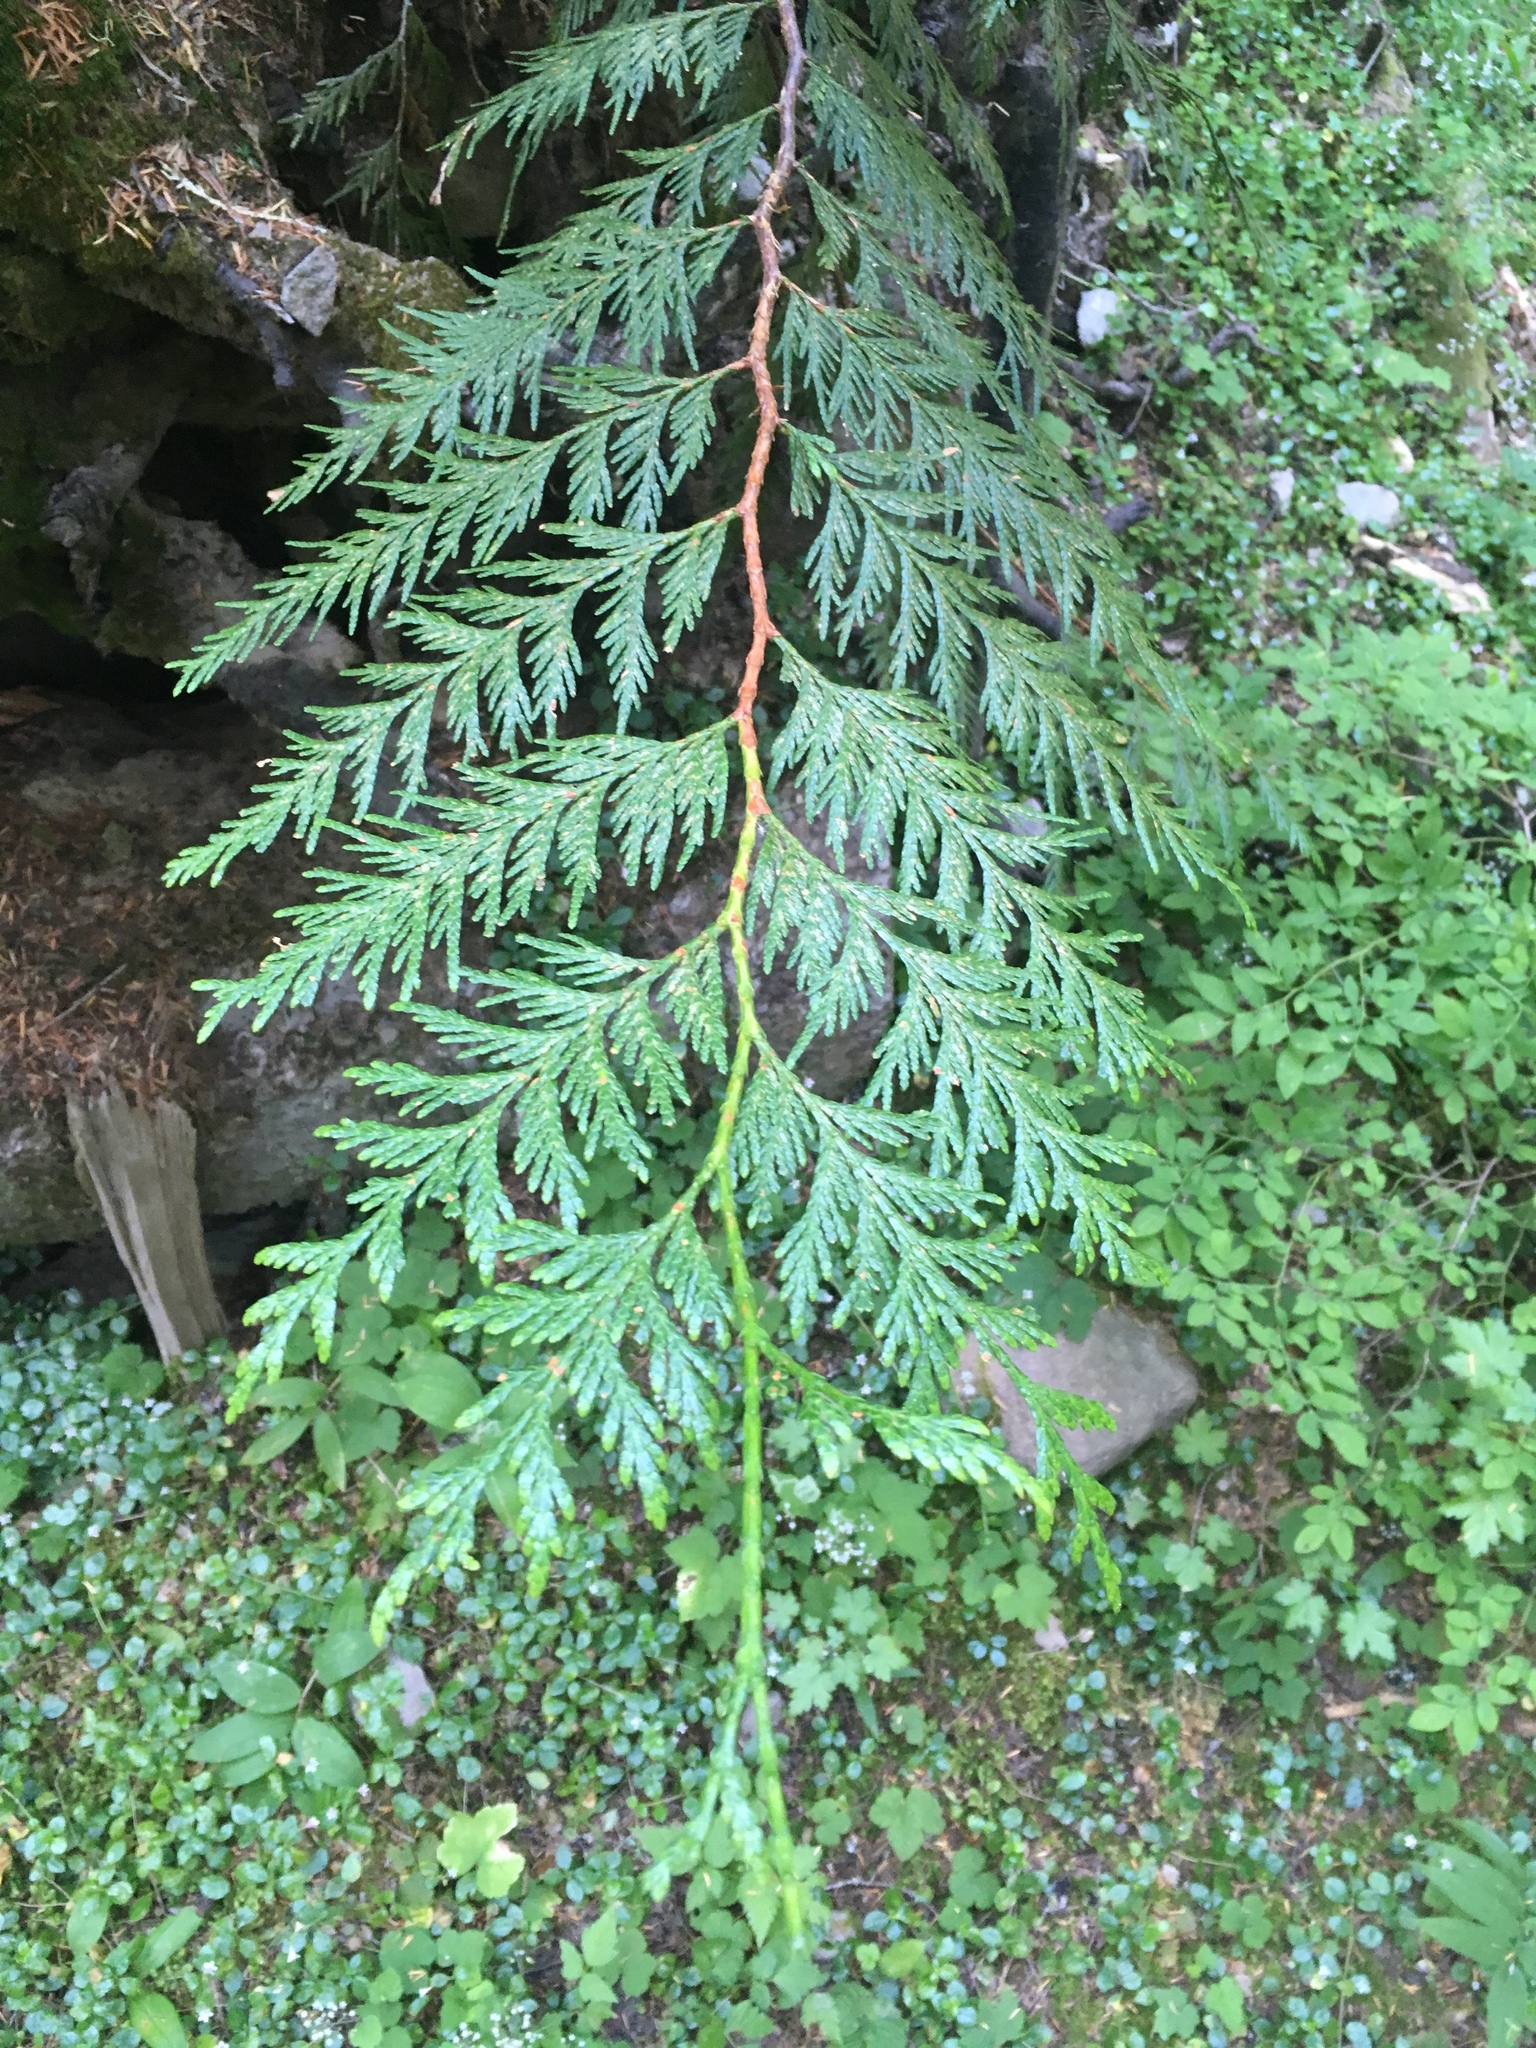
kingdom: Plantae
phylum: Tracheophyta
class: Pinopsida
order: Pinales
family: Cupressaceae
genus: Thuja
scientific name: Thuja plicata
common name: Western red-cedar
